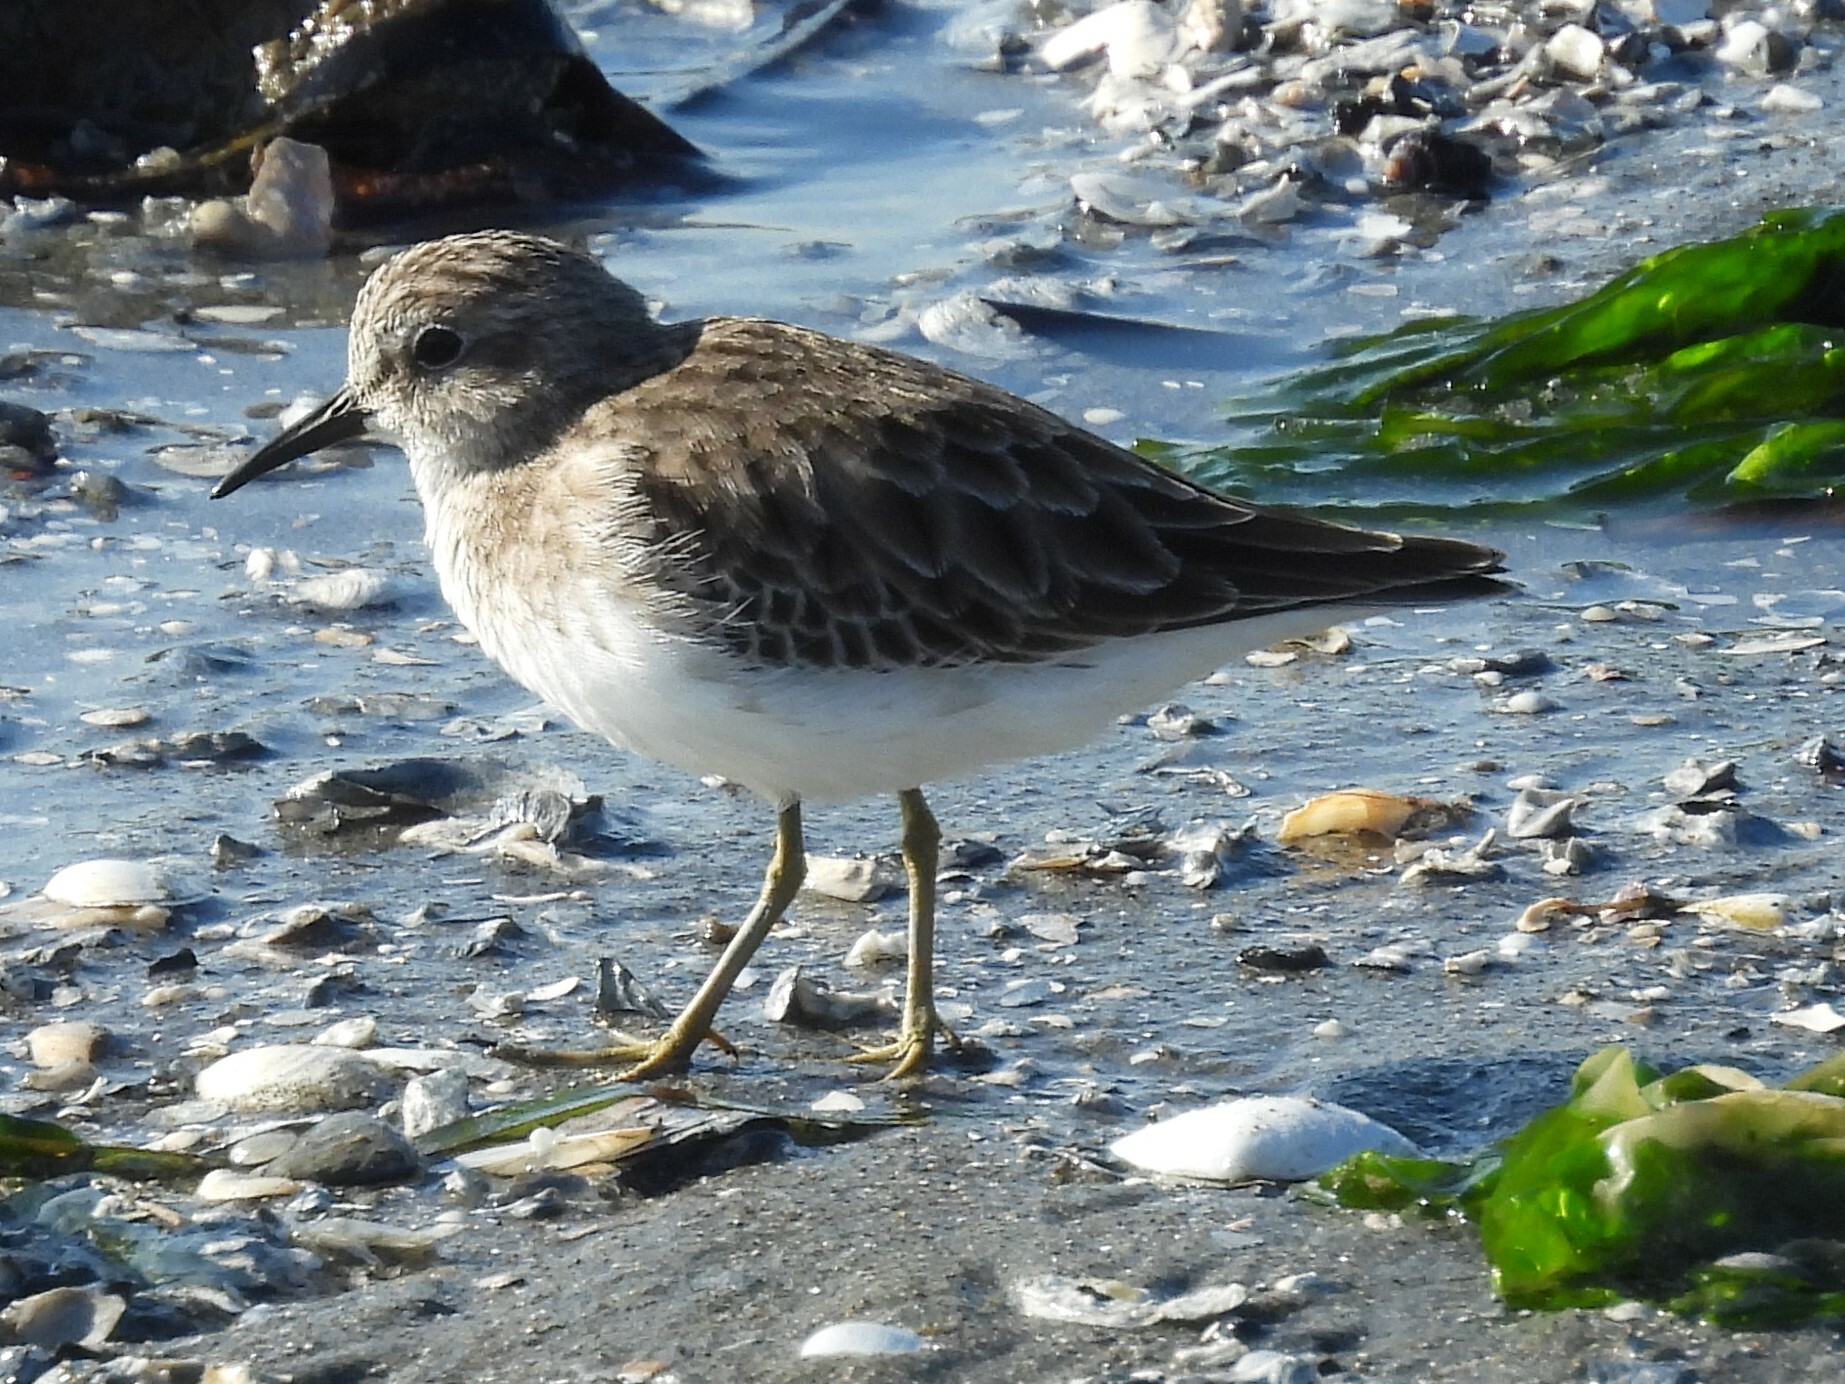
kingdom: Animalia
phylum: Chordata
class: Aves
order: Charadriiformes
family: Scolopacidae
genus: Calidris
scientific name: Calidris minutilla
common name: Least sandpiper
